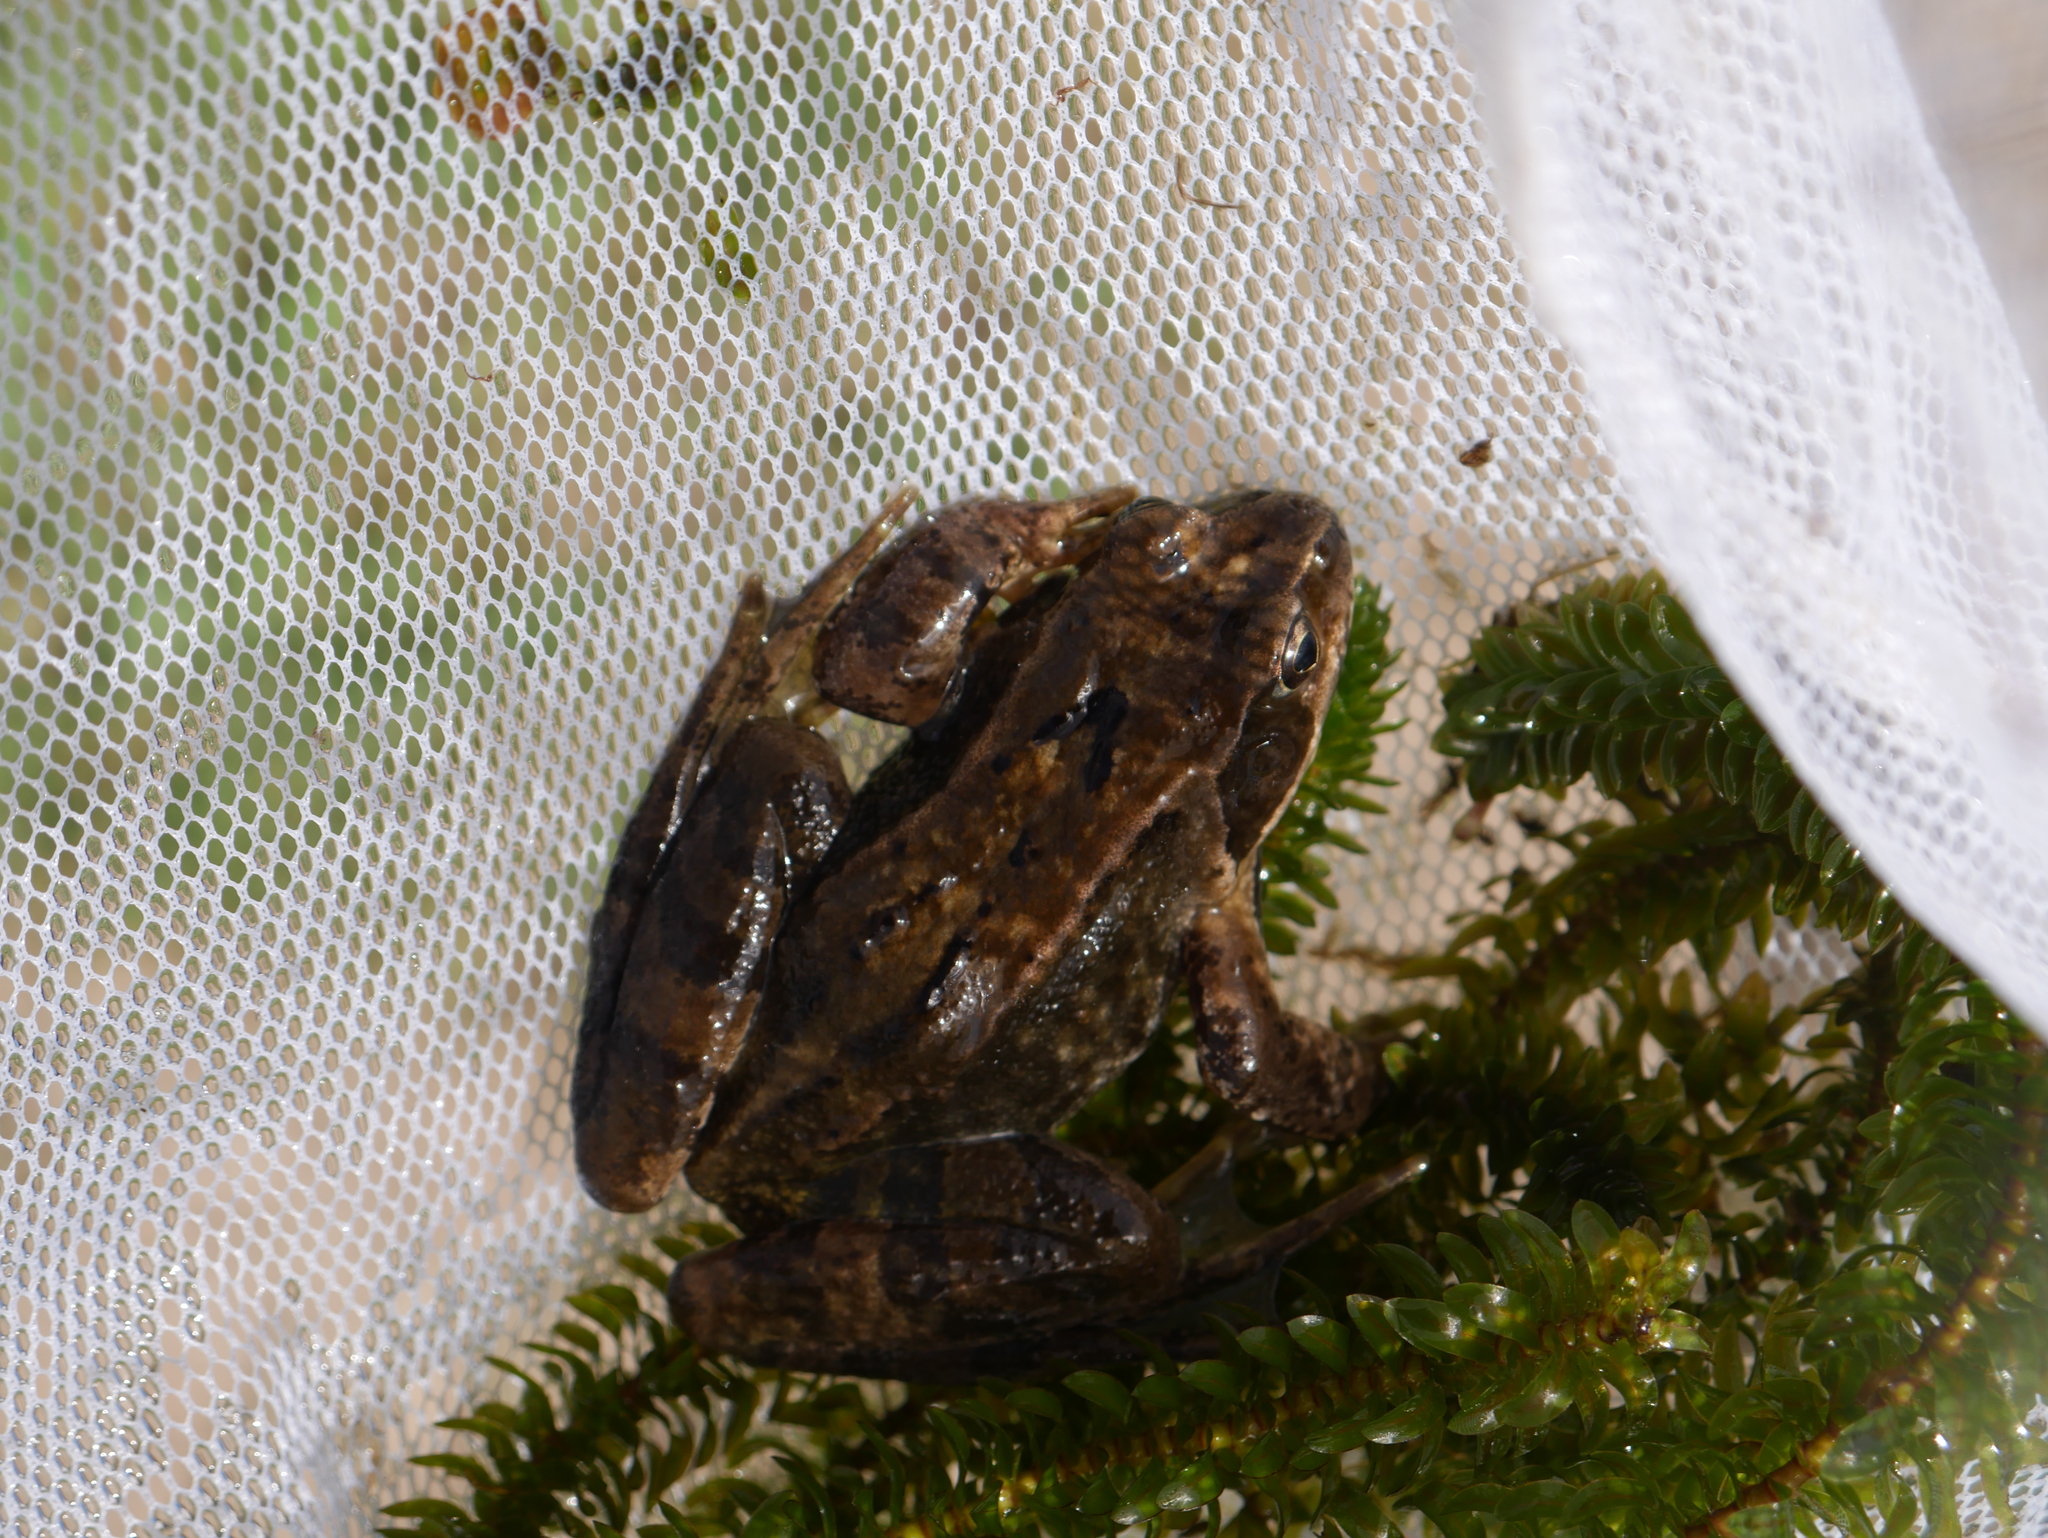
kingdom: Animalia
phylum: Chordata
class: Amphibia
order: Anura
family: Ranidae
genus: Rana
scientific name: Rana temporaria
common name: Common frog
